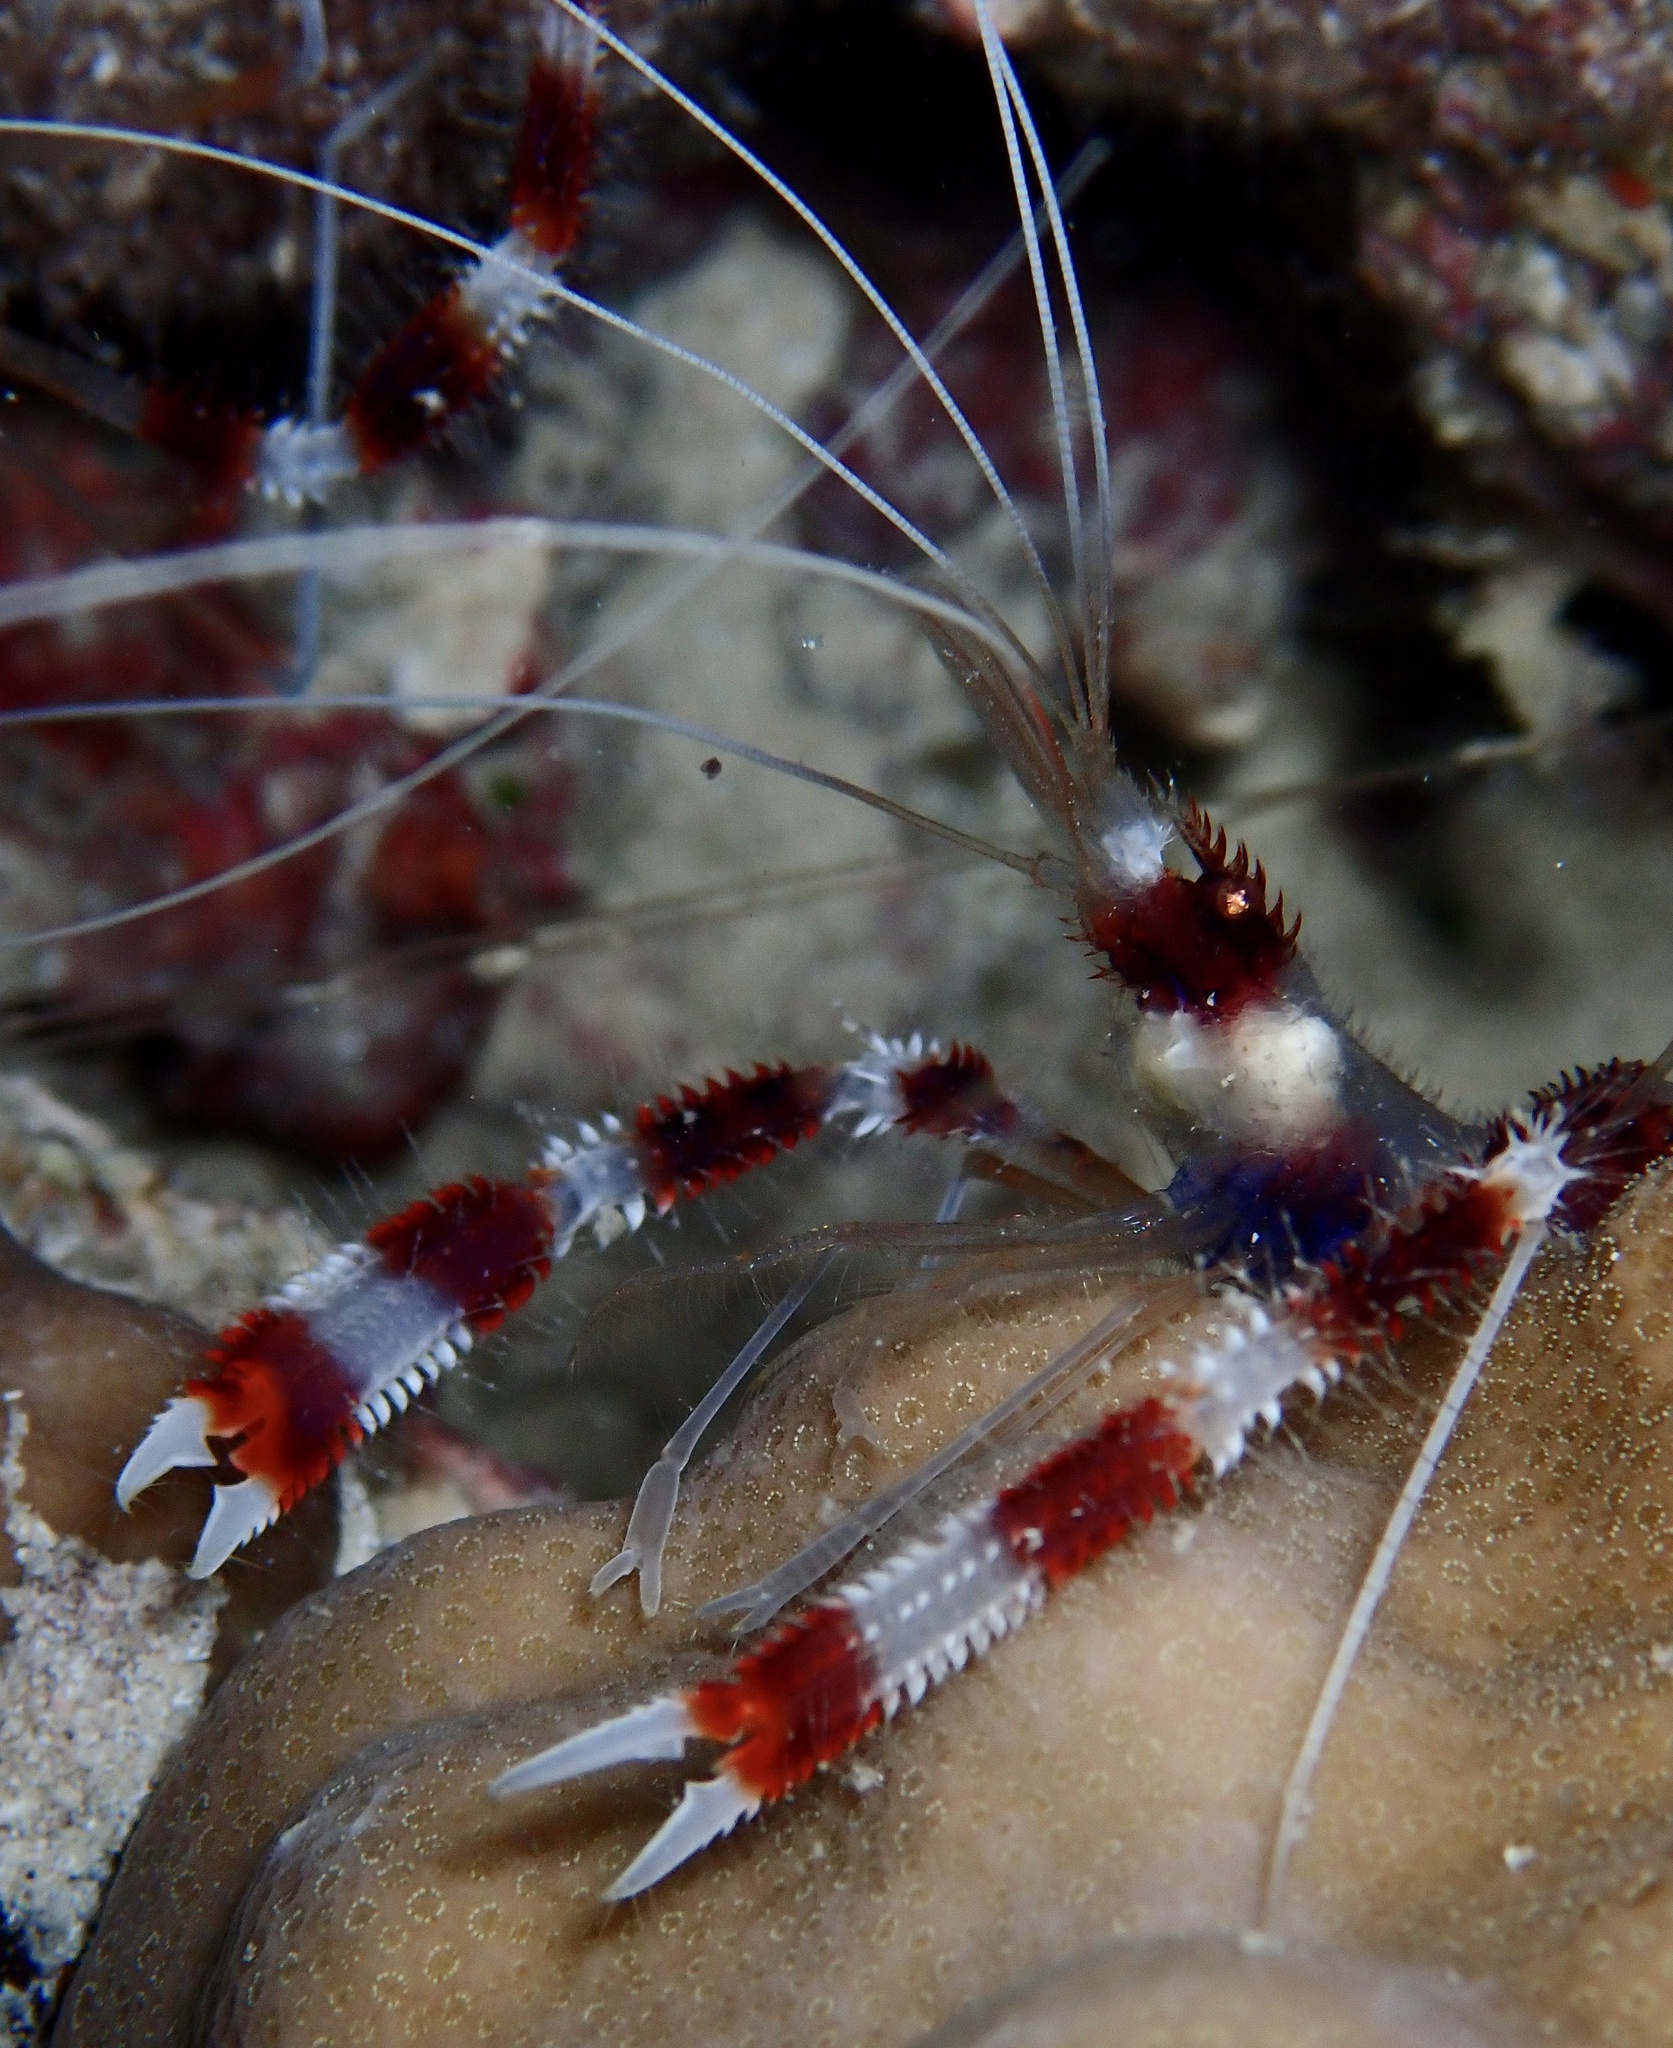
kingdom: Animalia
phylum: Arthropoda
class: Malacostraca
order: Decapoda
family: Stenopodidae
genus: Stenopus
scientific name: Stenopus hispidus
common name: Banded coral shrimp
